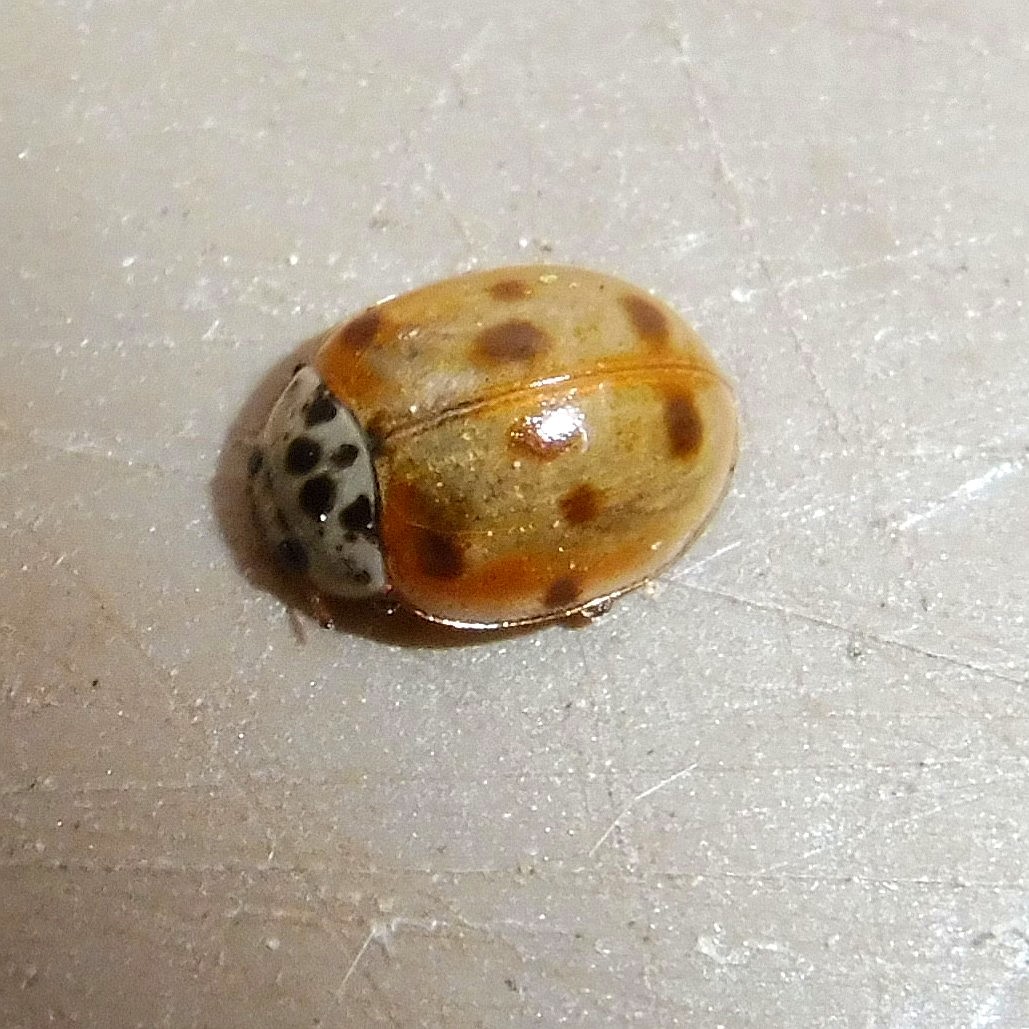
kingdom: Animalia
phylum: Arthropoda
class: Insecta
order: Coleoptera
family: Coccinellidae
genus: Adalia
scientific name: Adalia decempunctata
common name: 10-spot ladybird
